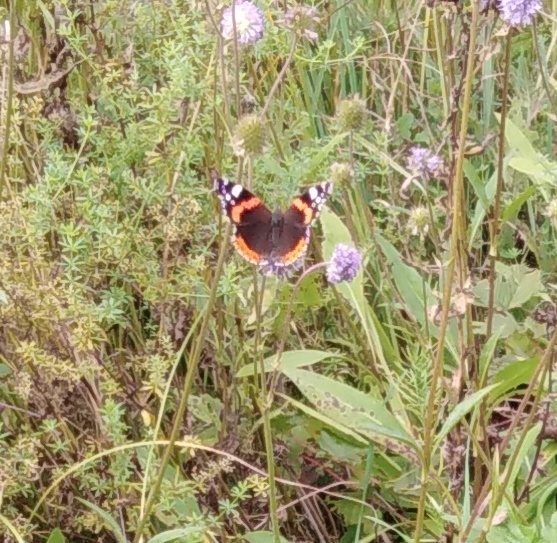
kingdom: Animalia
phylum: Arthropoda
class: Insecta
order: Lepidoptera
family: Nymphalidae
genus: Vanessa
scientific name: Vanessa atalanta
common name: Red admiral
